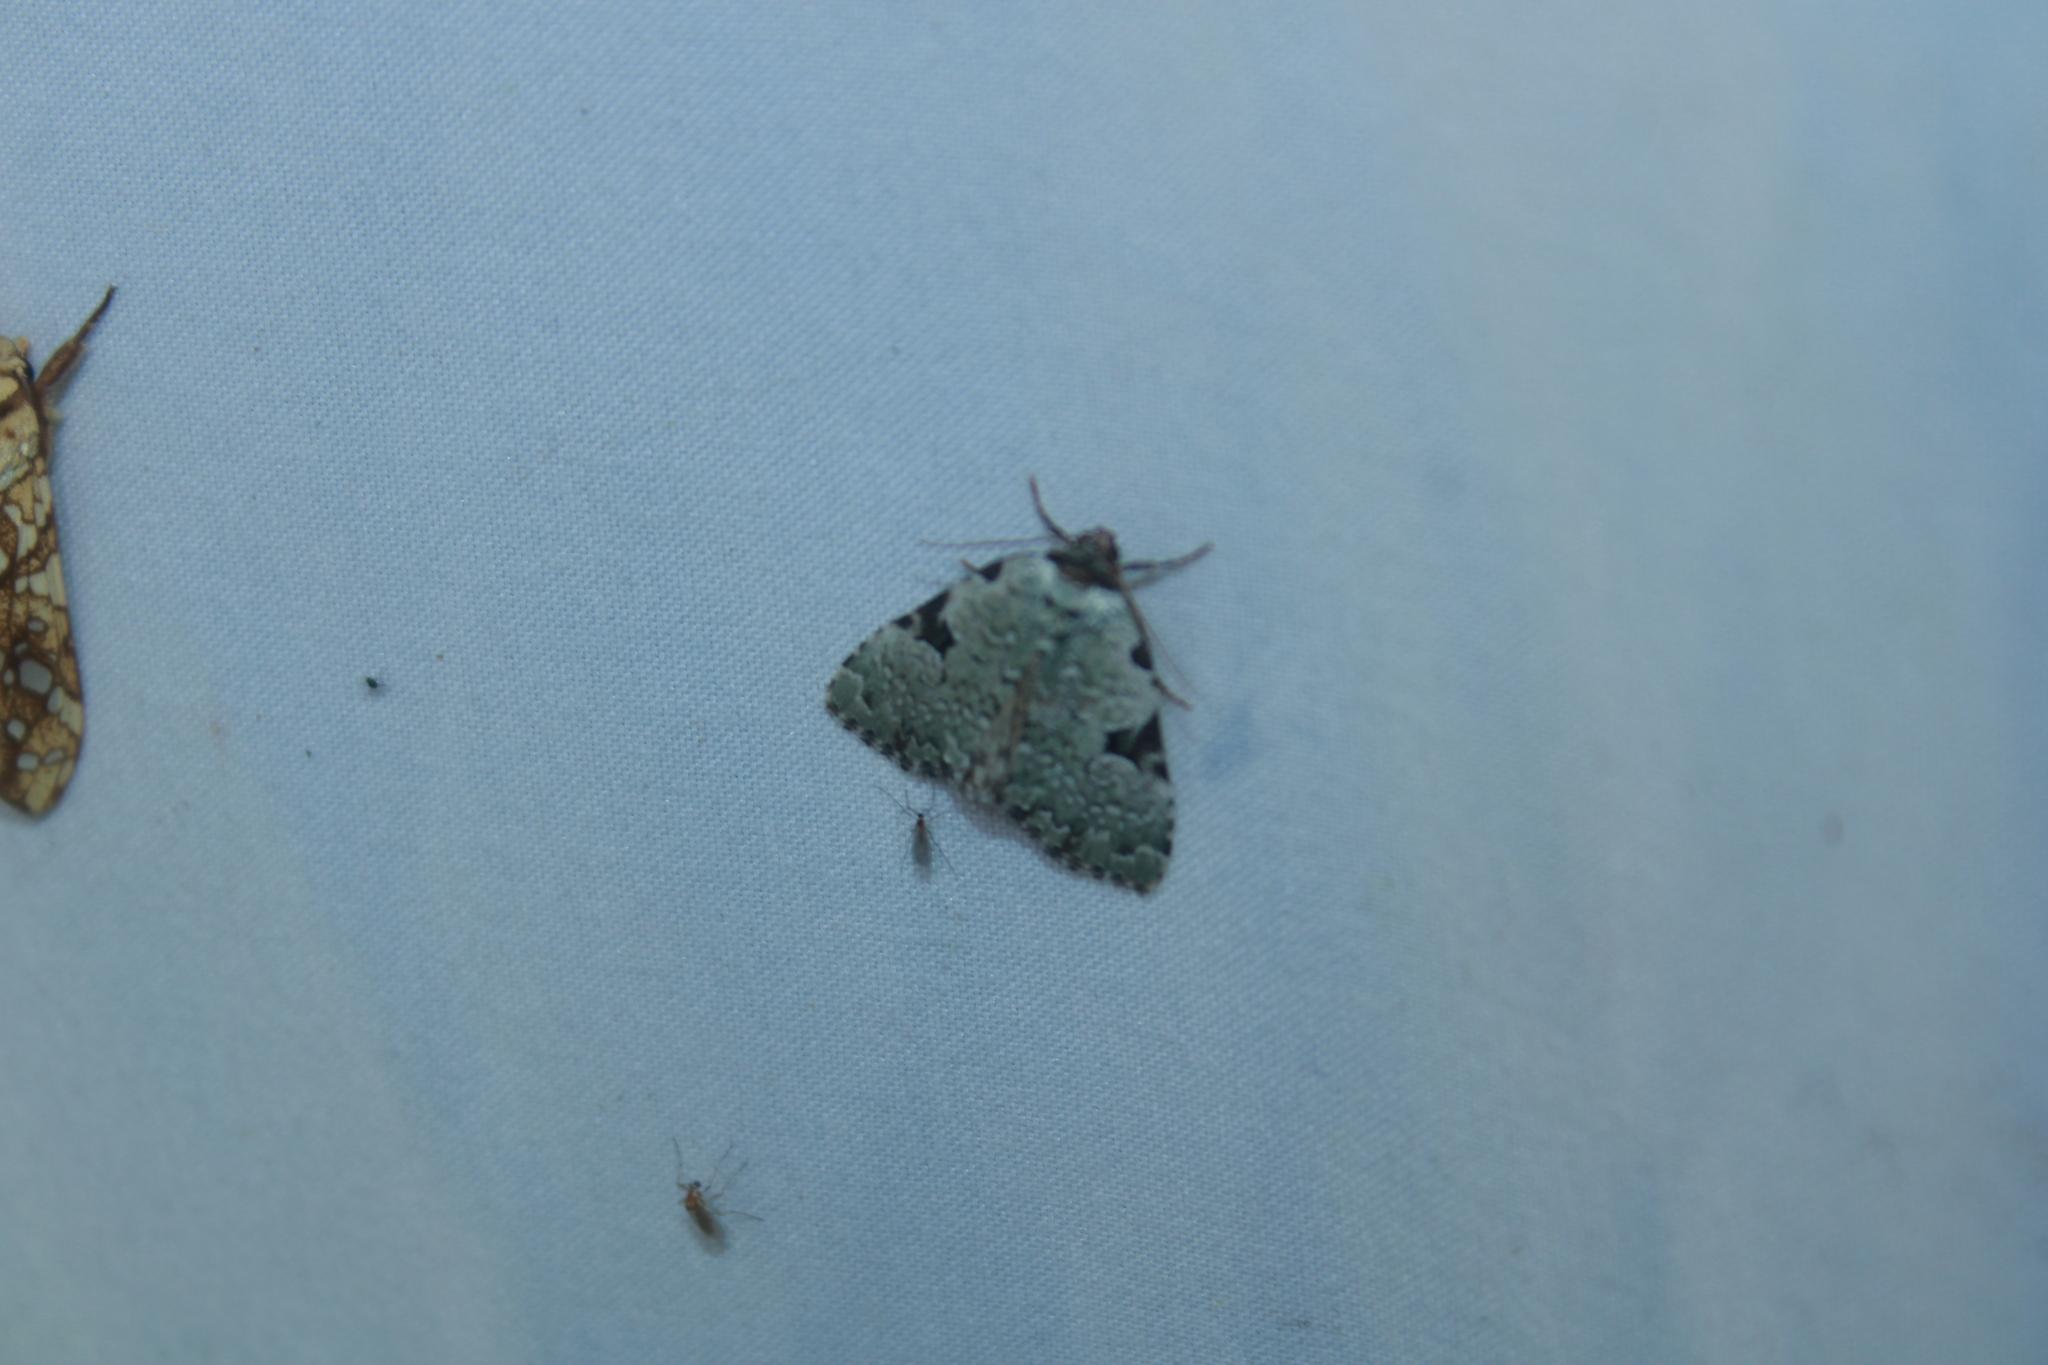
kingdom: Animalia
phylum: Arthropoda
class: Insecta
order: Lepidoptera
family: Noctuidae
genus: Leuconycta
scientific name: Leuconycta diphteroides
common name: Green leuconycta moth
